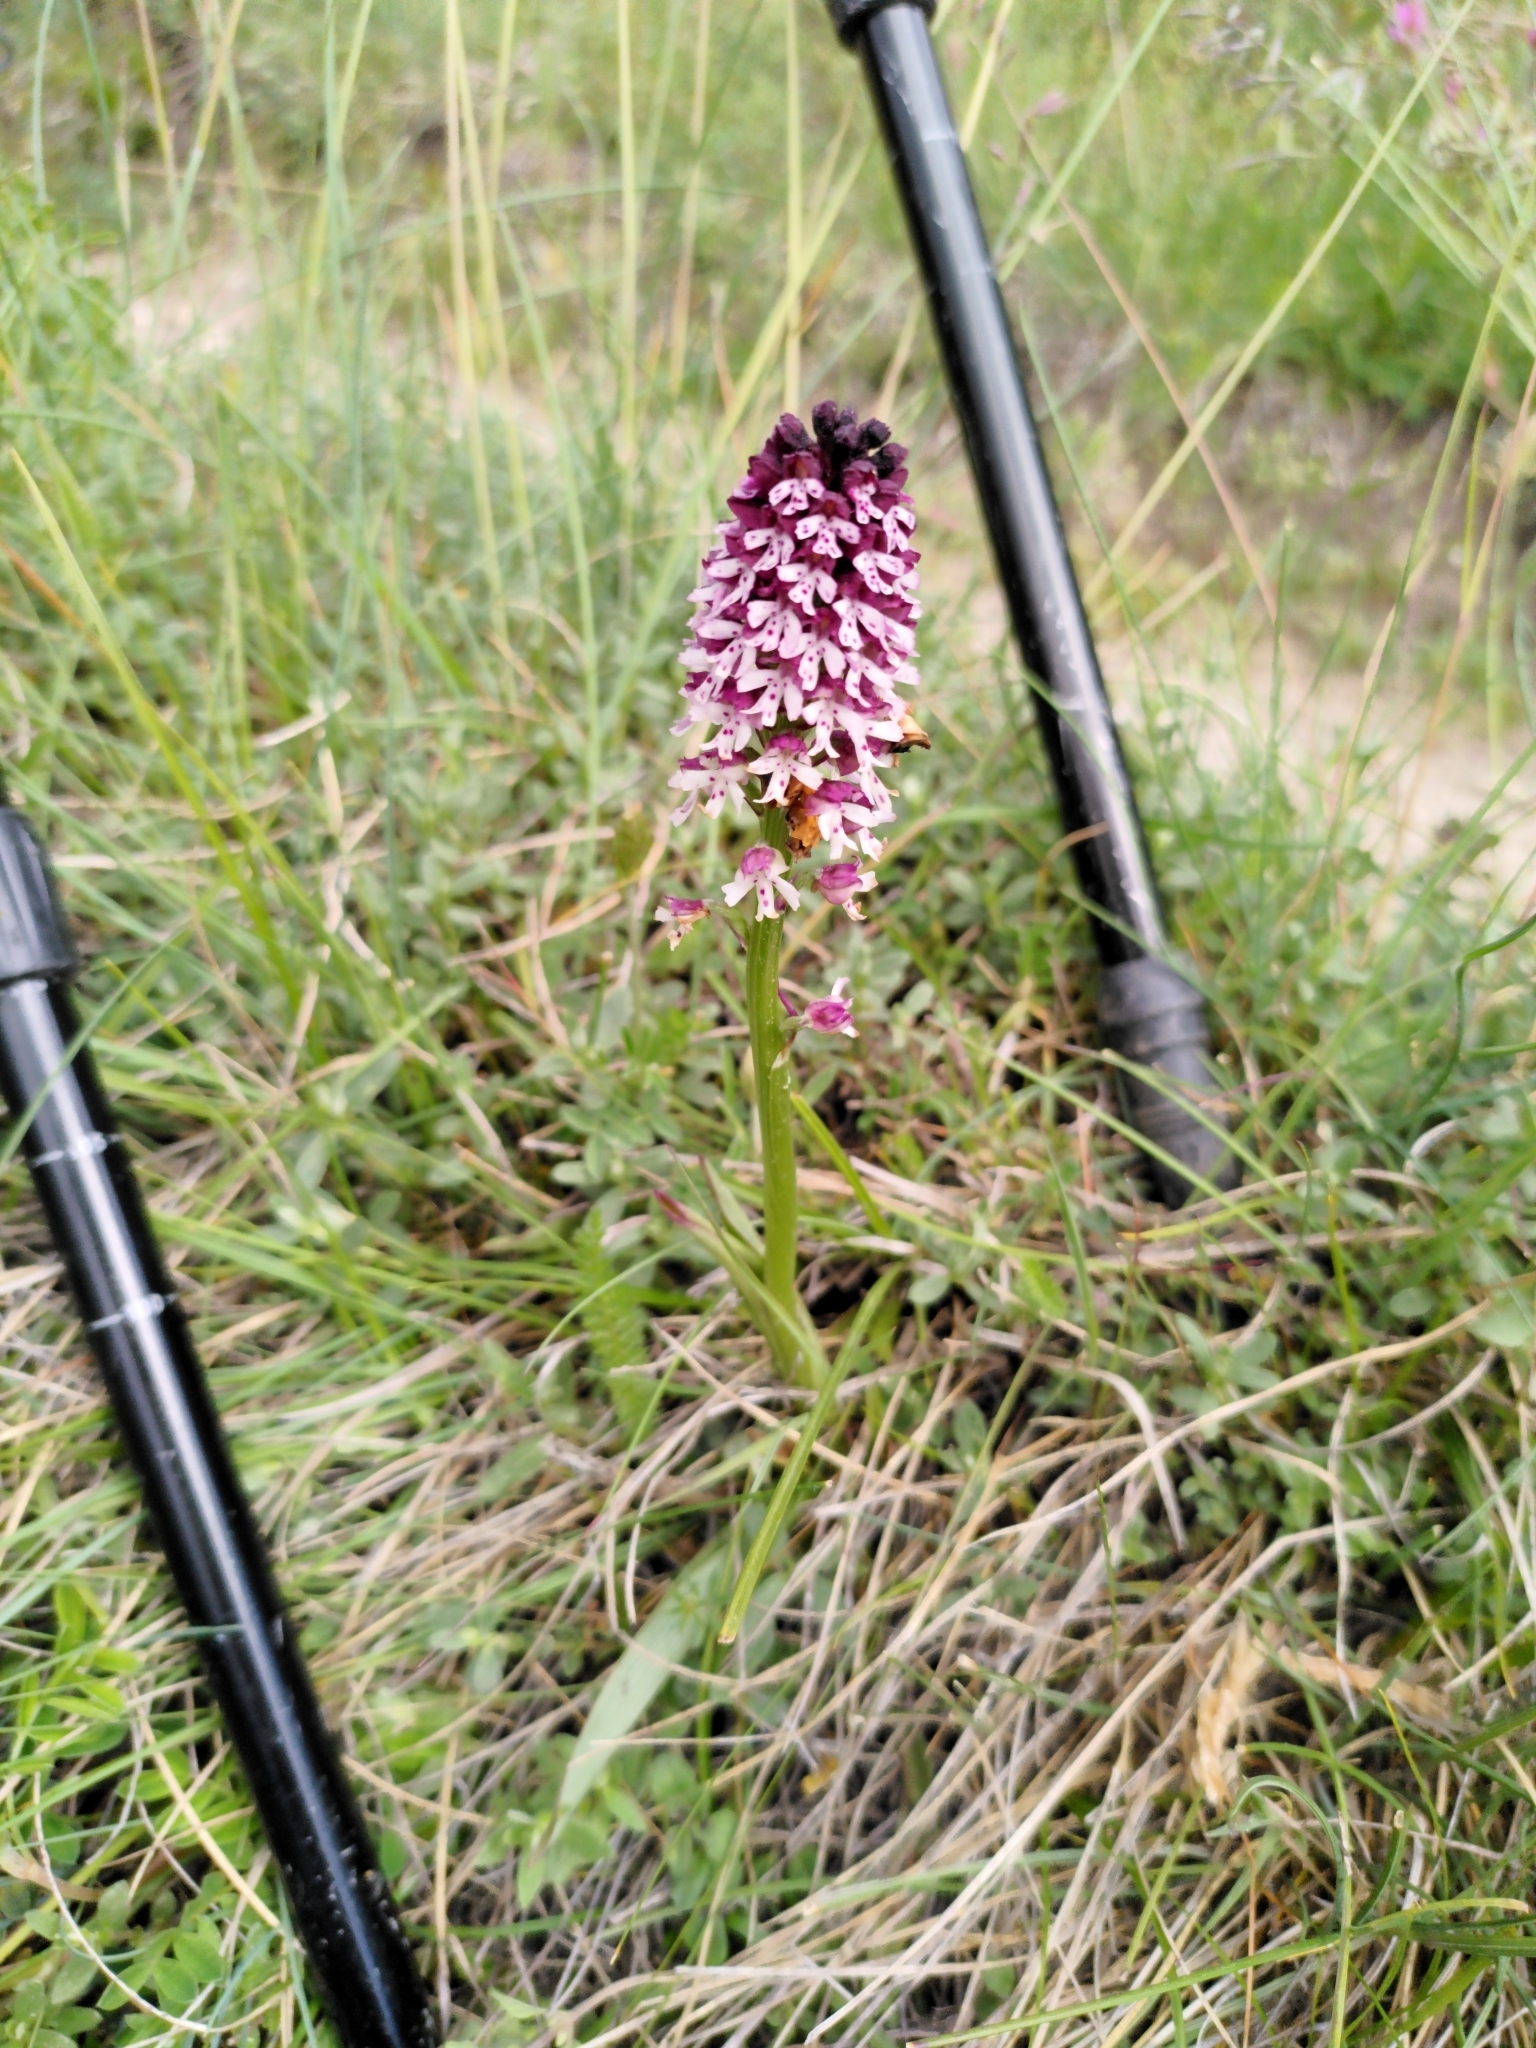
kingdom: Plantae
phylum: Tracheophyta
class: Liliopsida
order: Asparagales
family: Orchidaceae
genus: Neotinea
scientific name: Neotinea ustulata
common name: Burnt orchid
